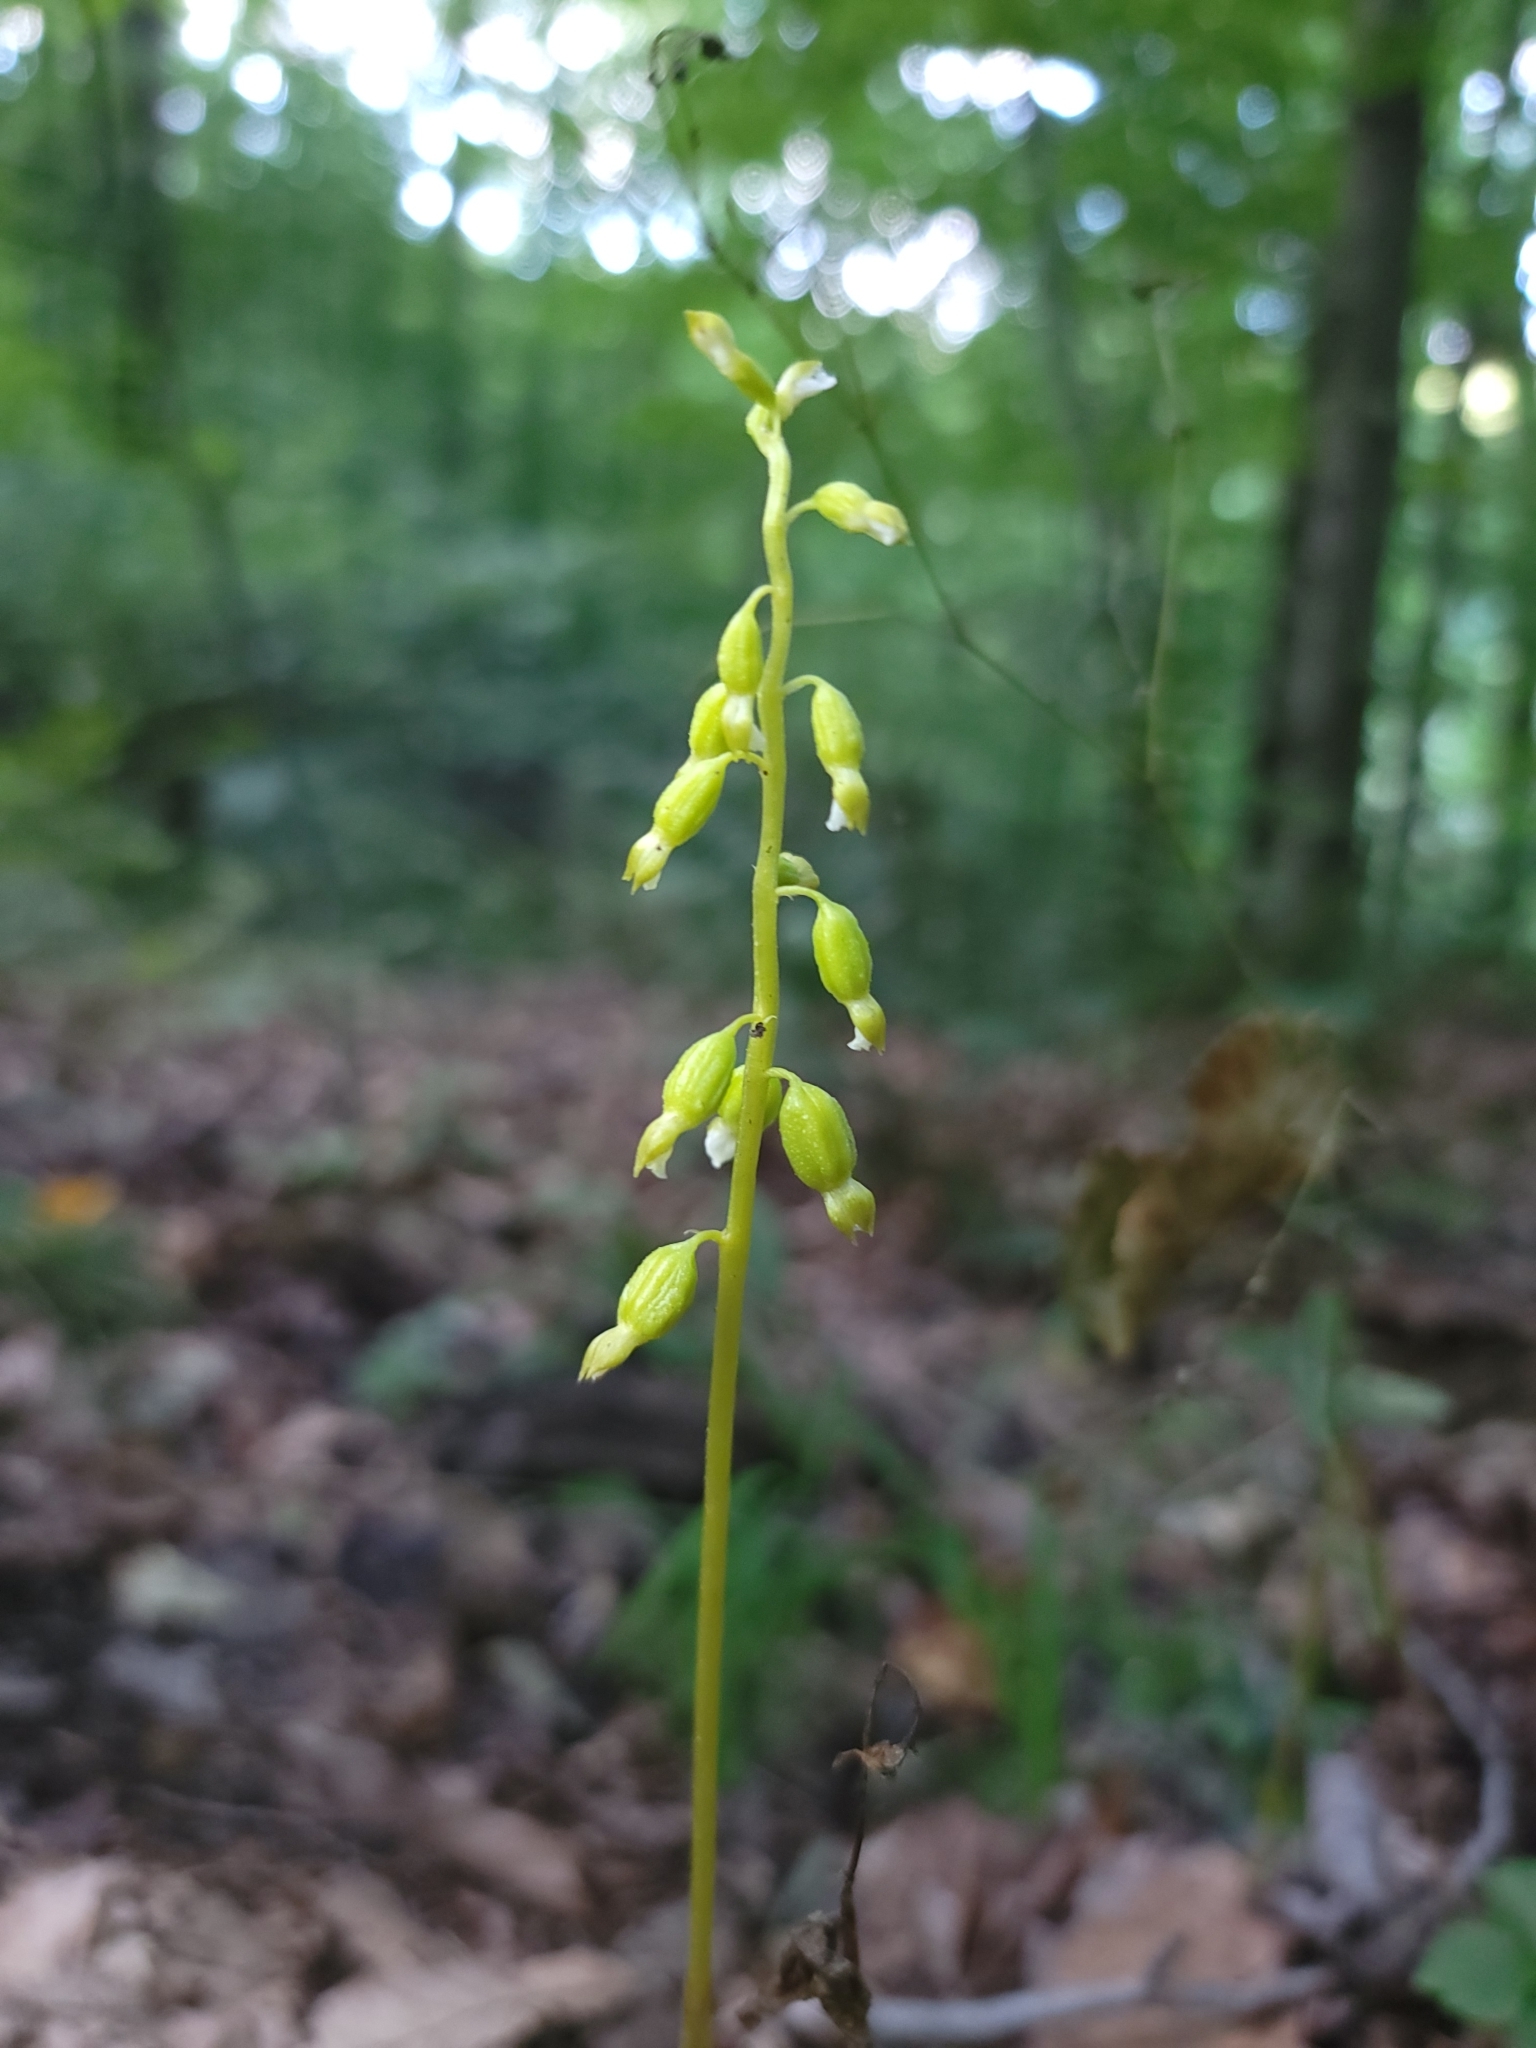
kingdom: Plantae
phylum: Tracheophyta
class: Liliopsida
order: Asparagales
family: Orchidaceae
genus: Corallorhiza
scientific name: Corallorhiza odontorhiza
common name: Autumn coralroot
